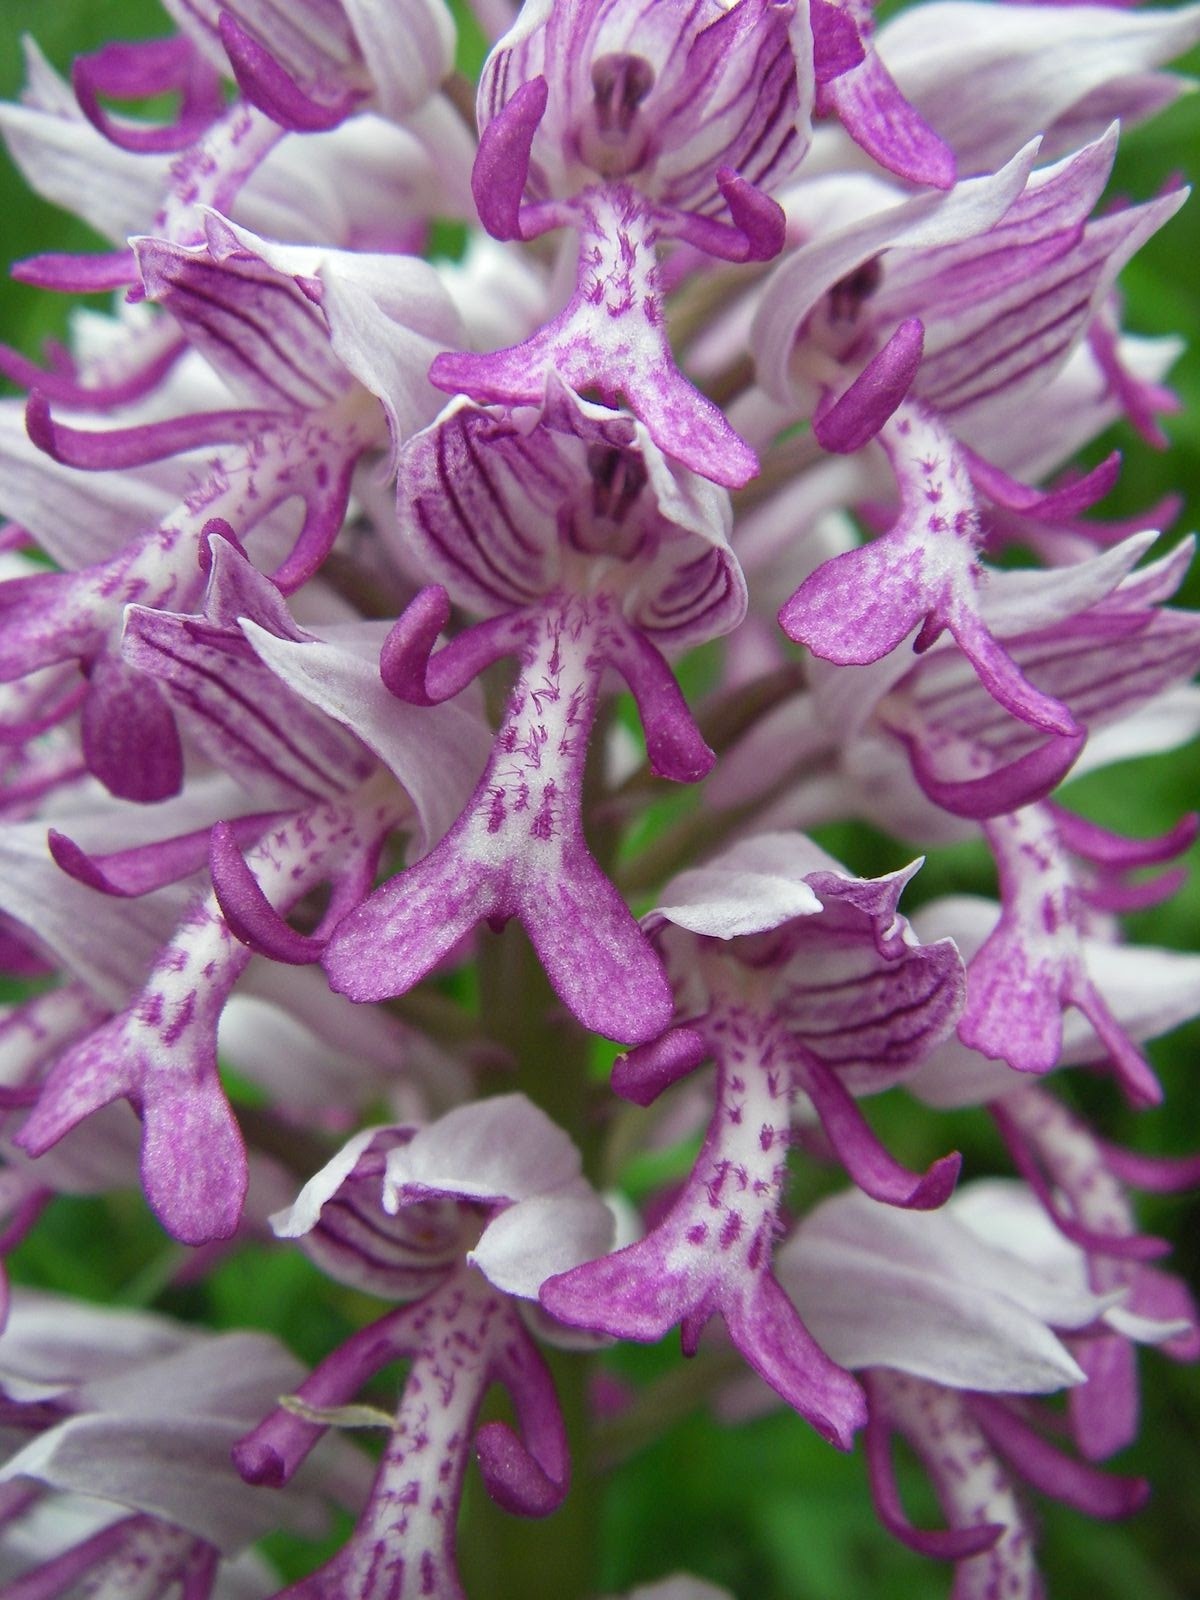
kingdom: Plantae
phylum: Tracheophyta
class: Liliopsida
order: Asparagales
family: Orchidaceae
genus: Orchis
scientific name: Orchis militaris
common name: Military orchid
